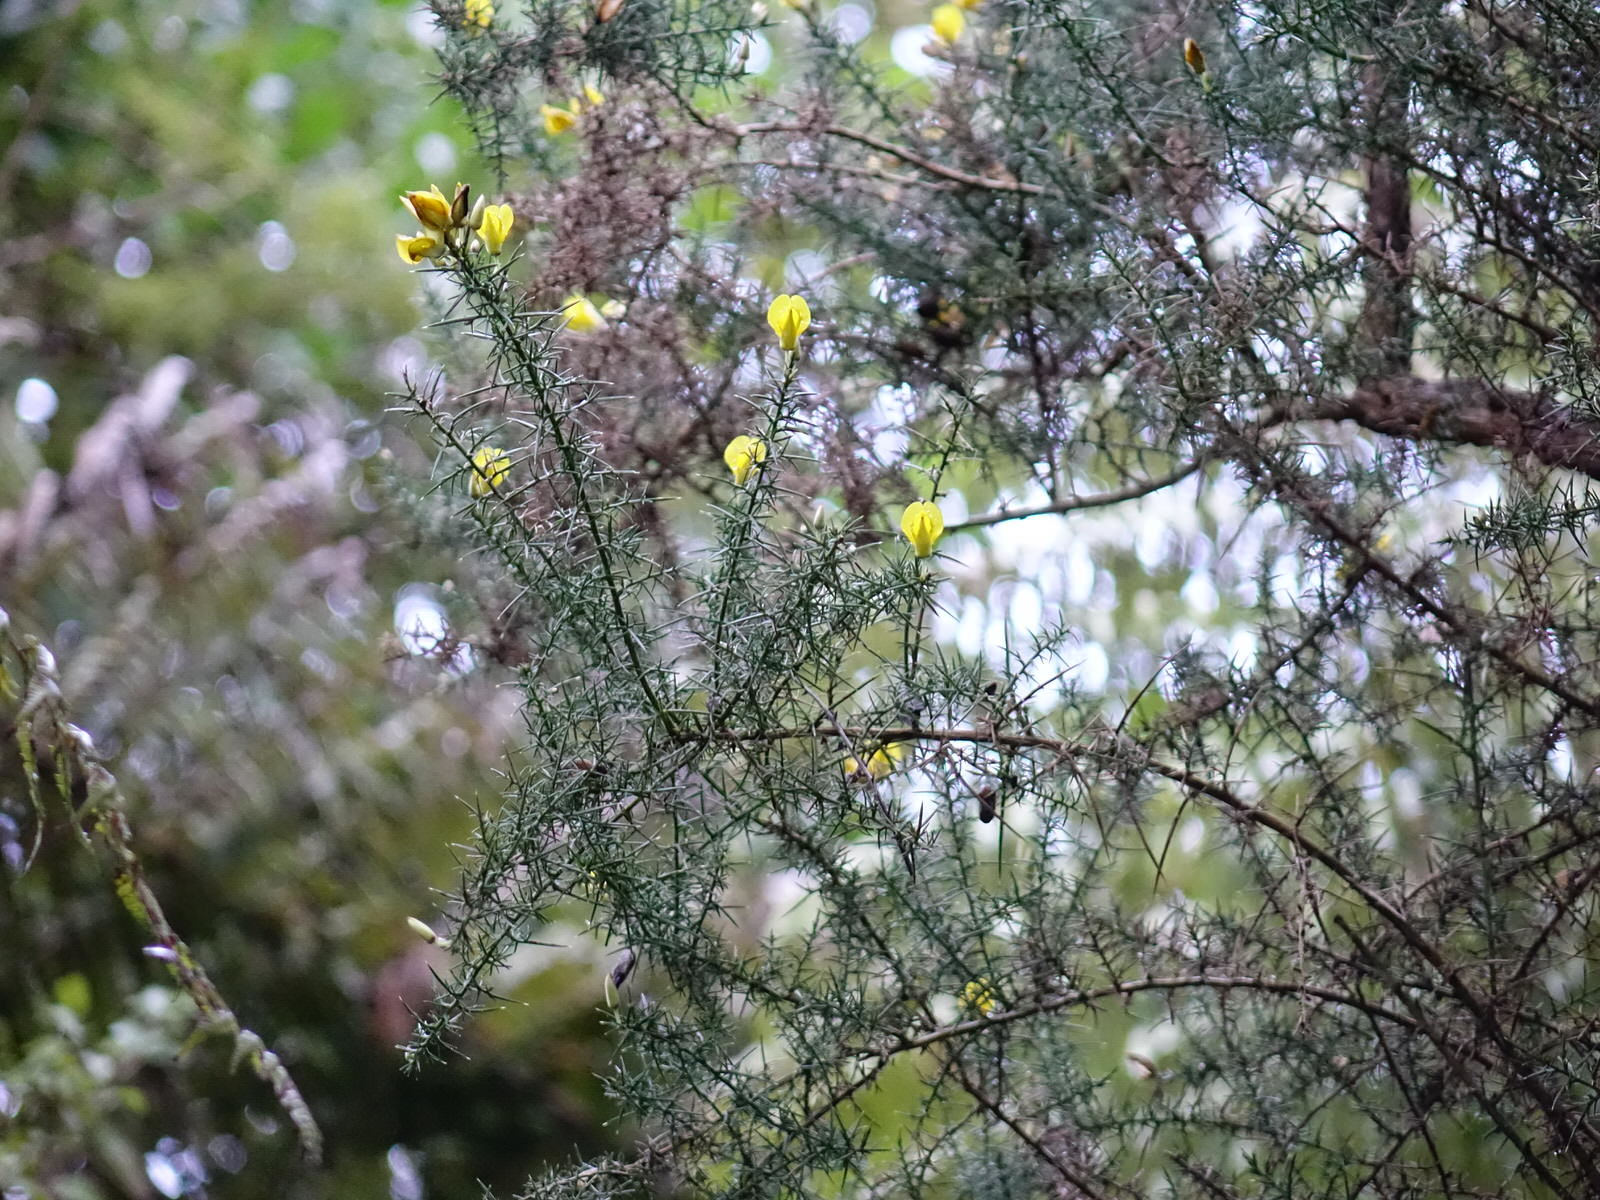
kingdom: Plantae
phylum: Tracheophyta
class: Magnoliopsida
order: Fabales
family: Fabaceae
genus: Ulex
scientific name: Ulex europaeus
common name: Common gorse
